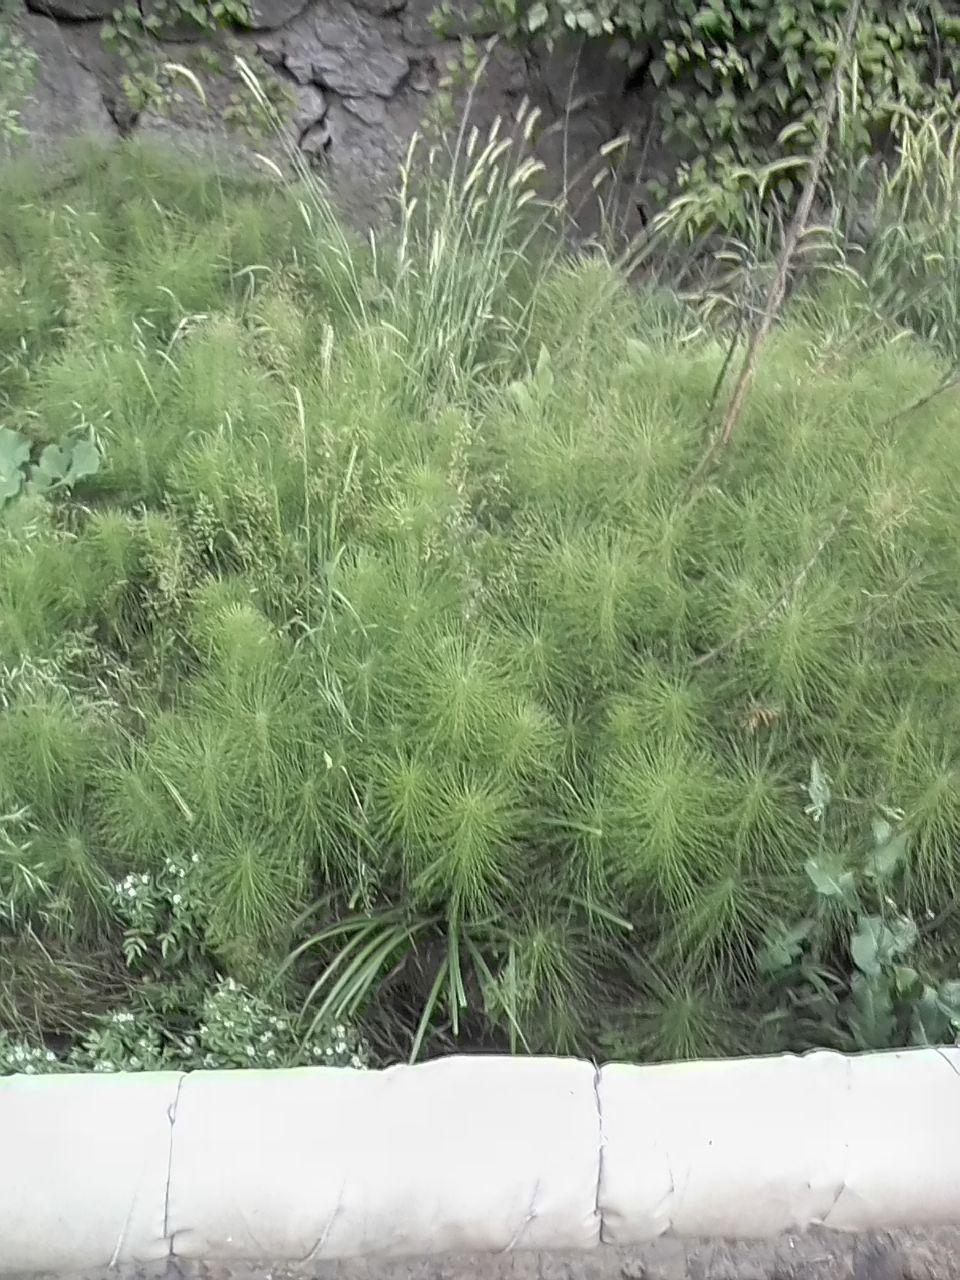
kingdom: Plantae
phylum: Tracheophyta
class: Polypodiopsida
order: Equisetales
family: Equisetaceae
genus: Equisetum
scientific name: Equisetum telmateia
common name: Great horsetail
